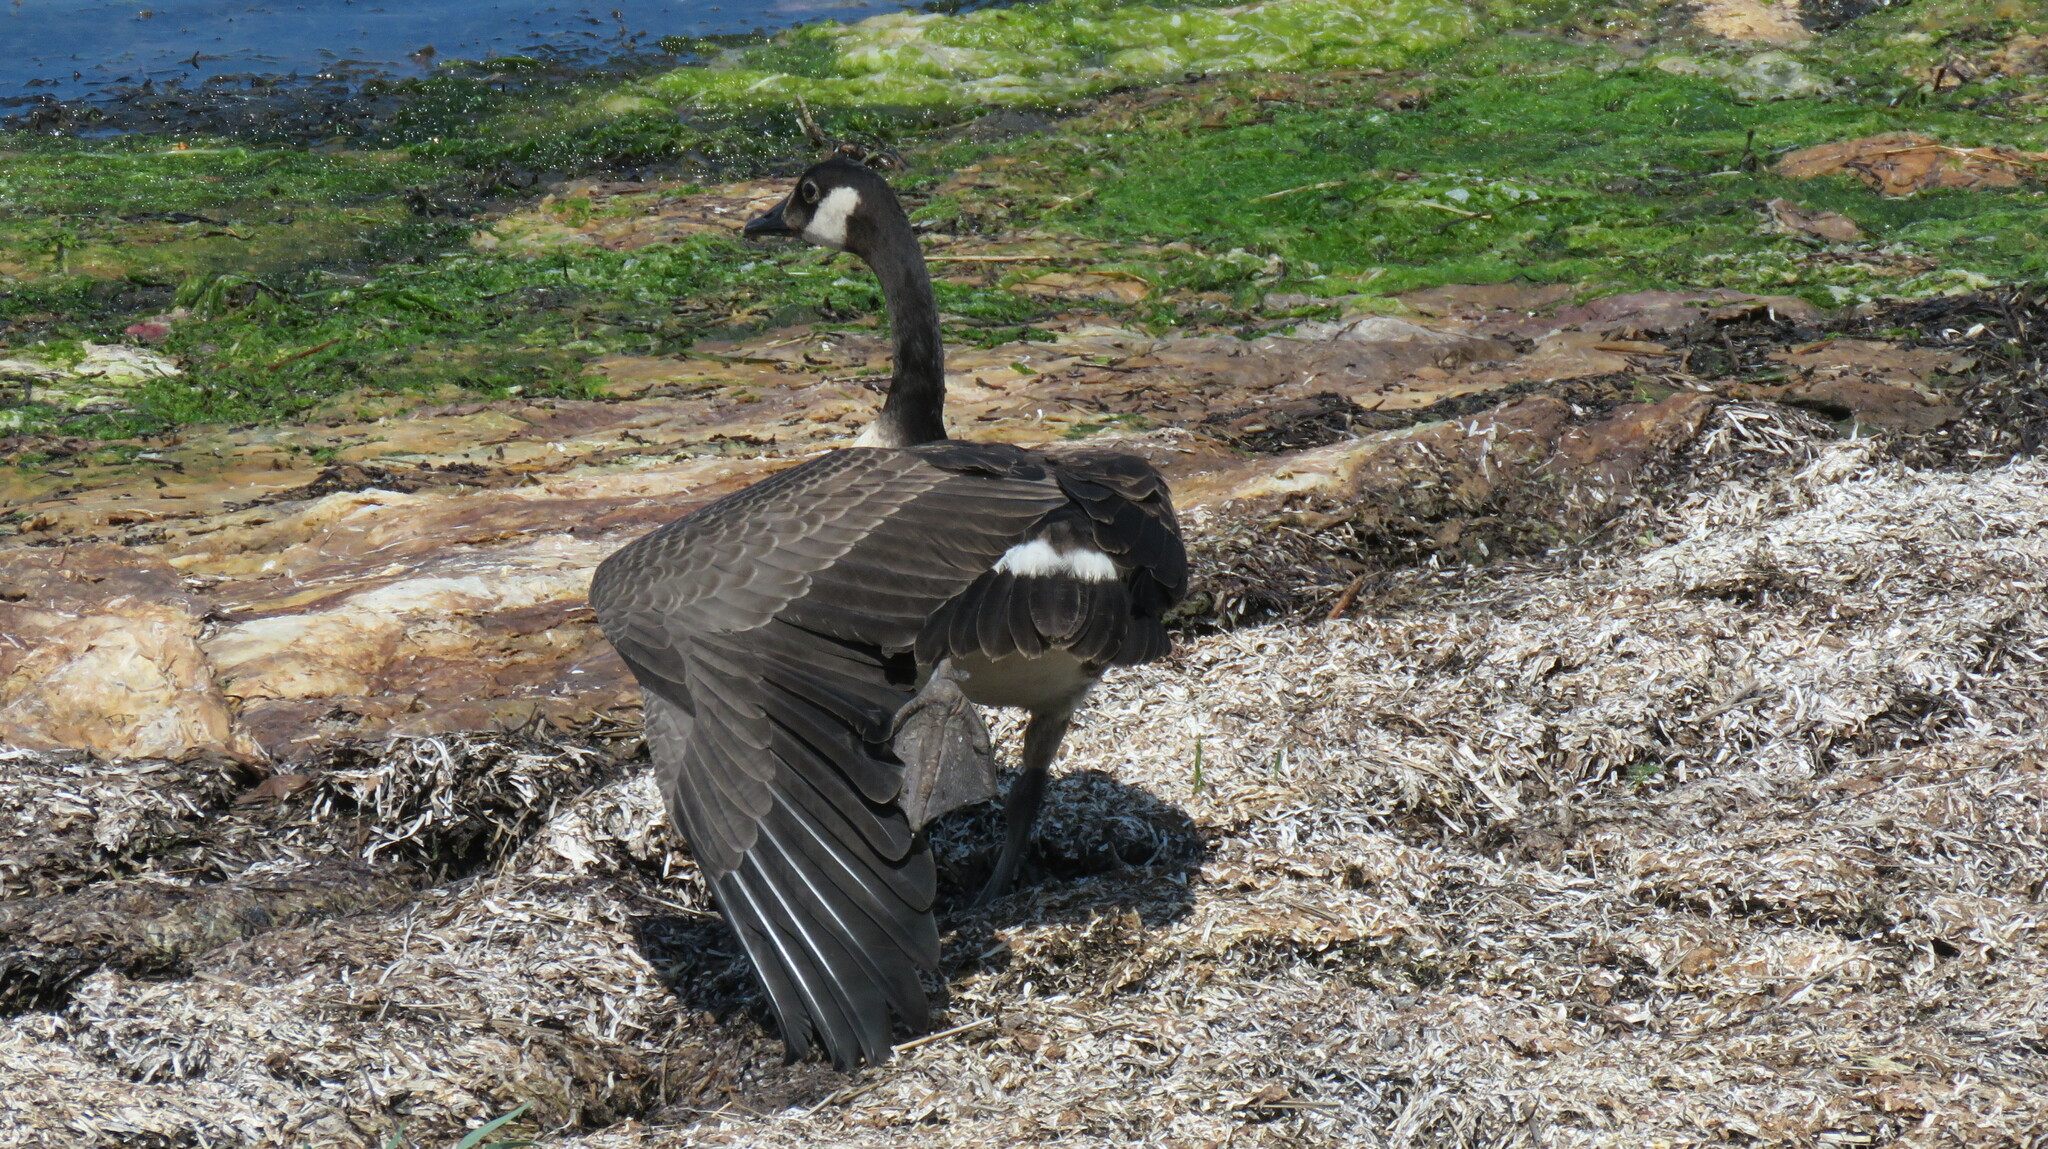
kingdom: Animalia
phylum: Chordata
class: Aves
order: Anseriformes
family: Anatidae
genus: Branta
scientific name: Branta canadensis
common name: Canada goose
